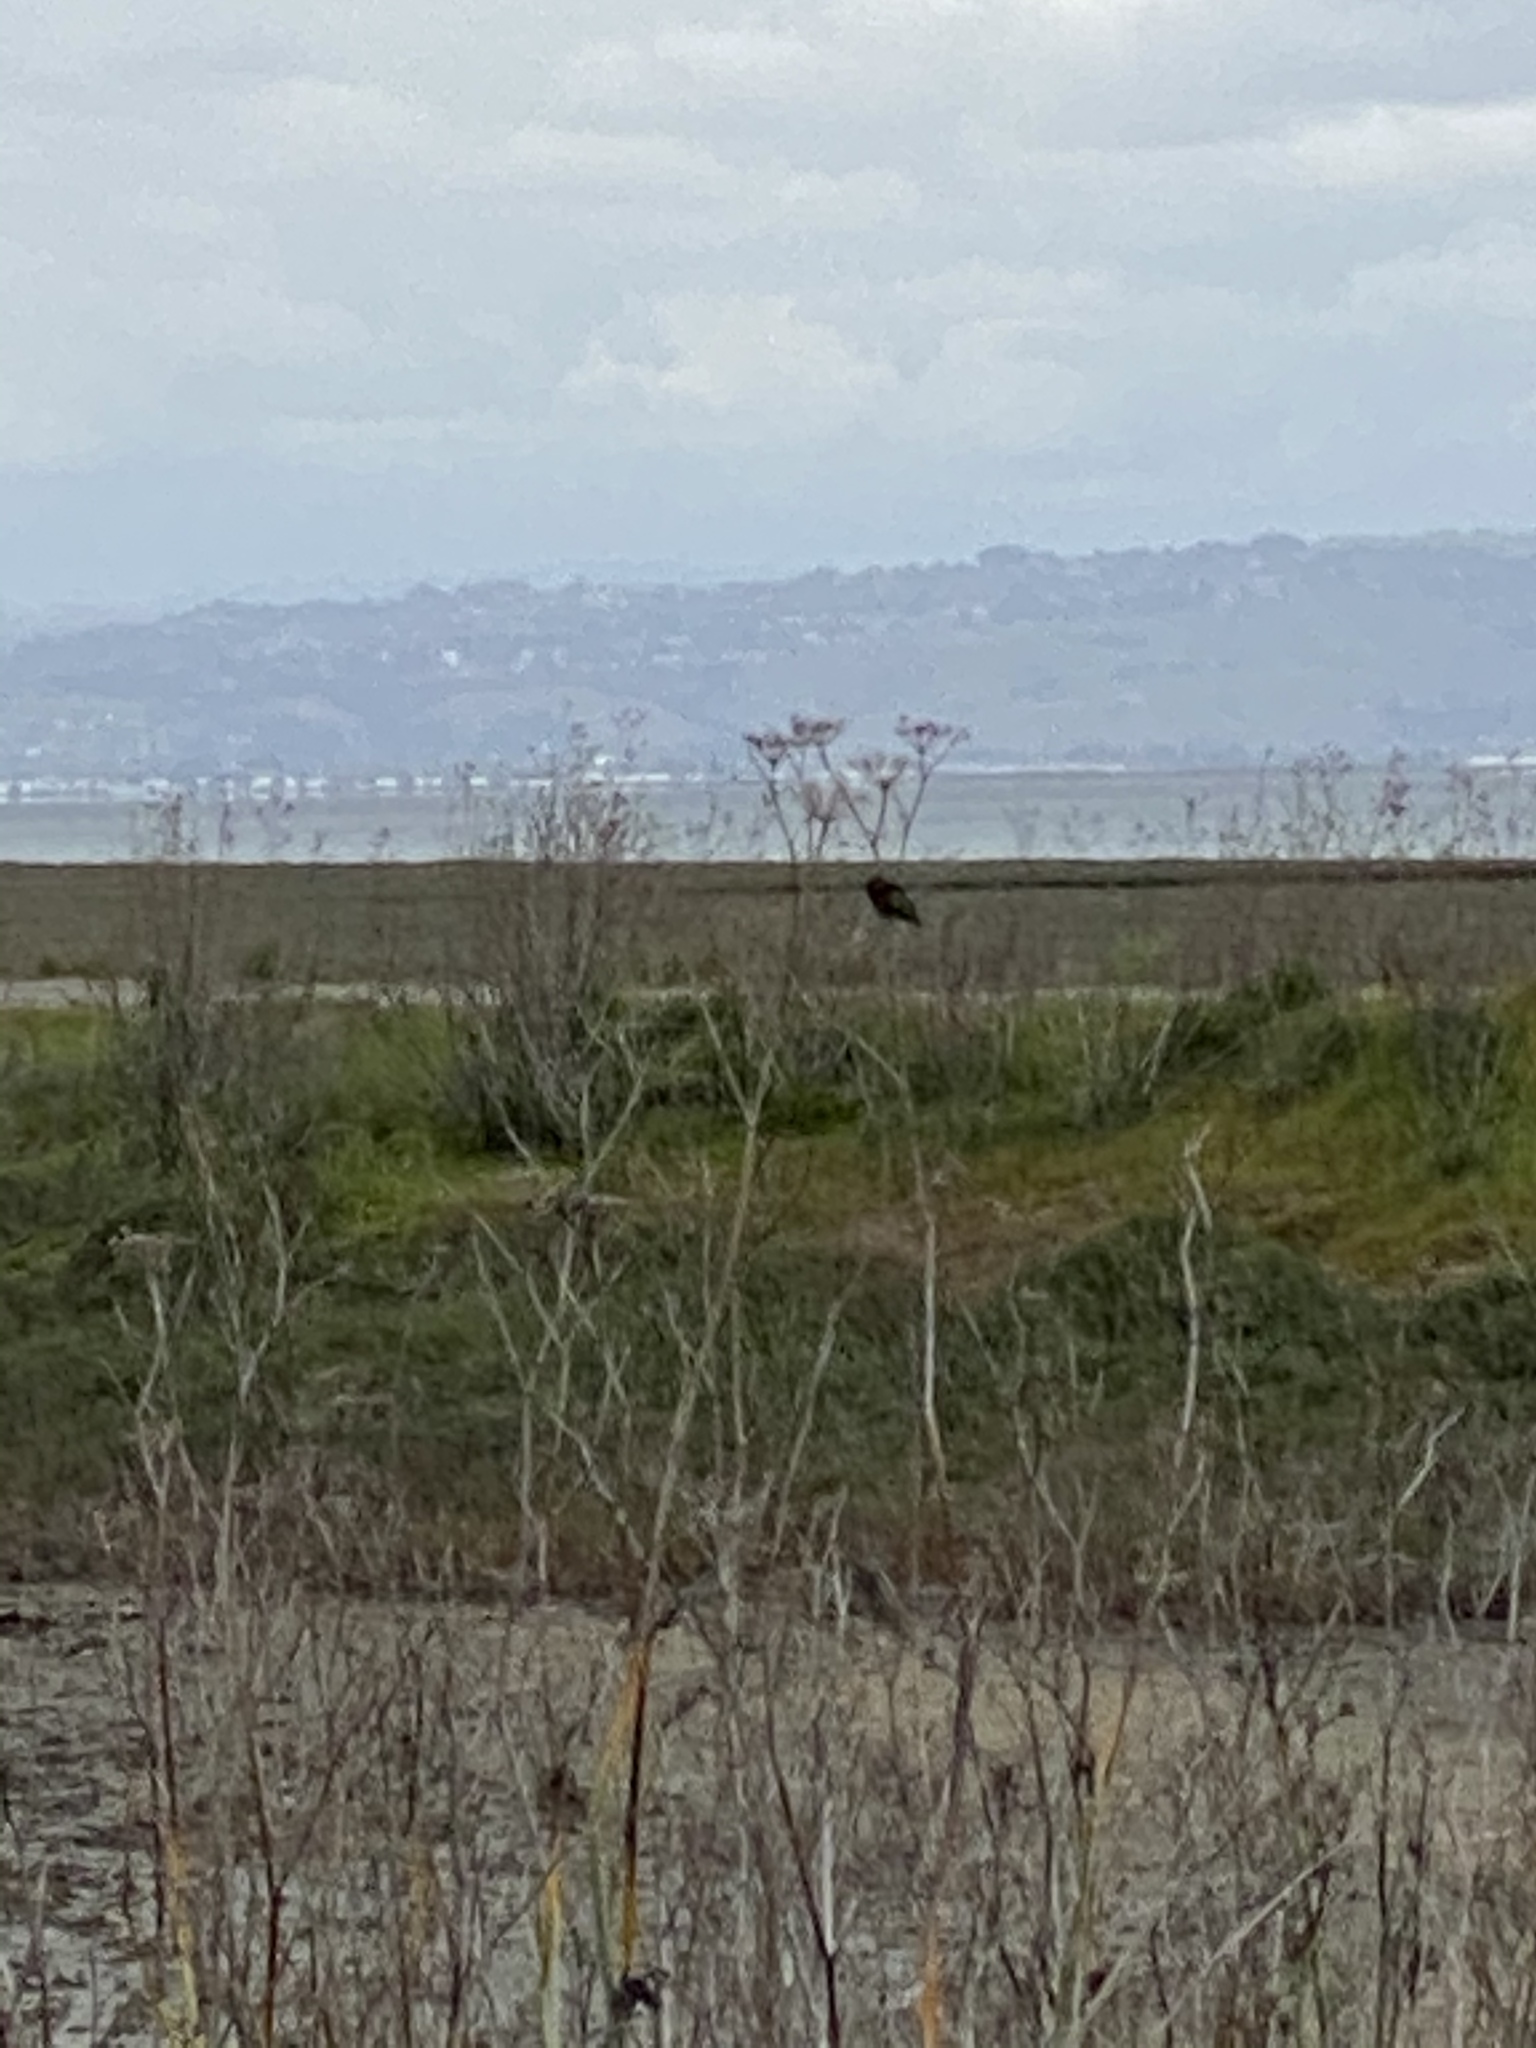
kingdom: Animalia
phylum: Chordata
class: Aves
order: Apodiformes
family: Trochilidae
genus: Calypte
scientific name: Calypte anna
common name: Anna's hummingbird
